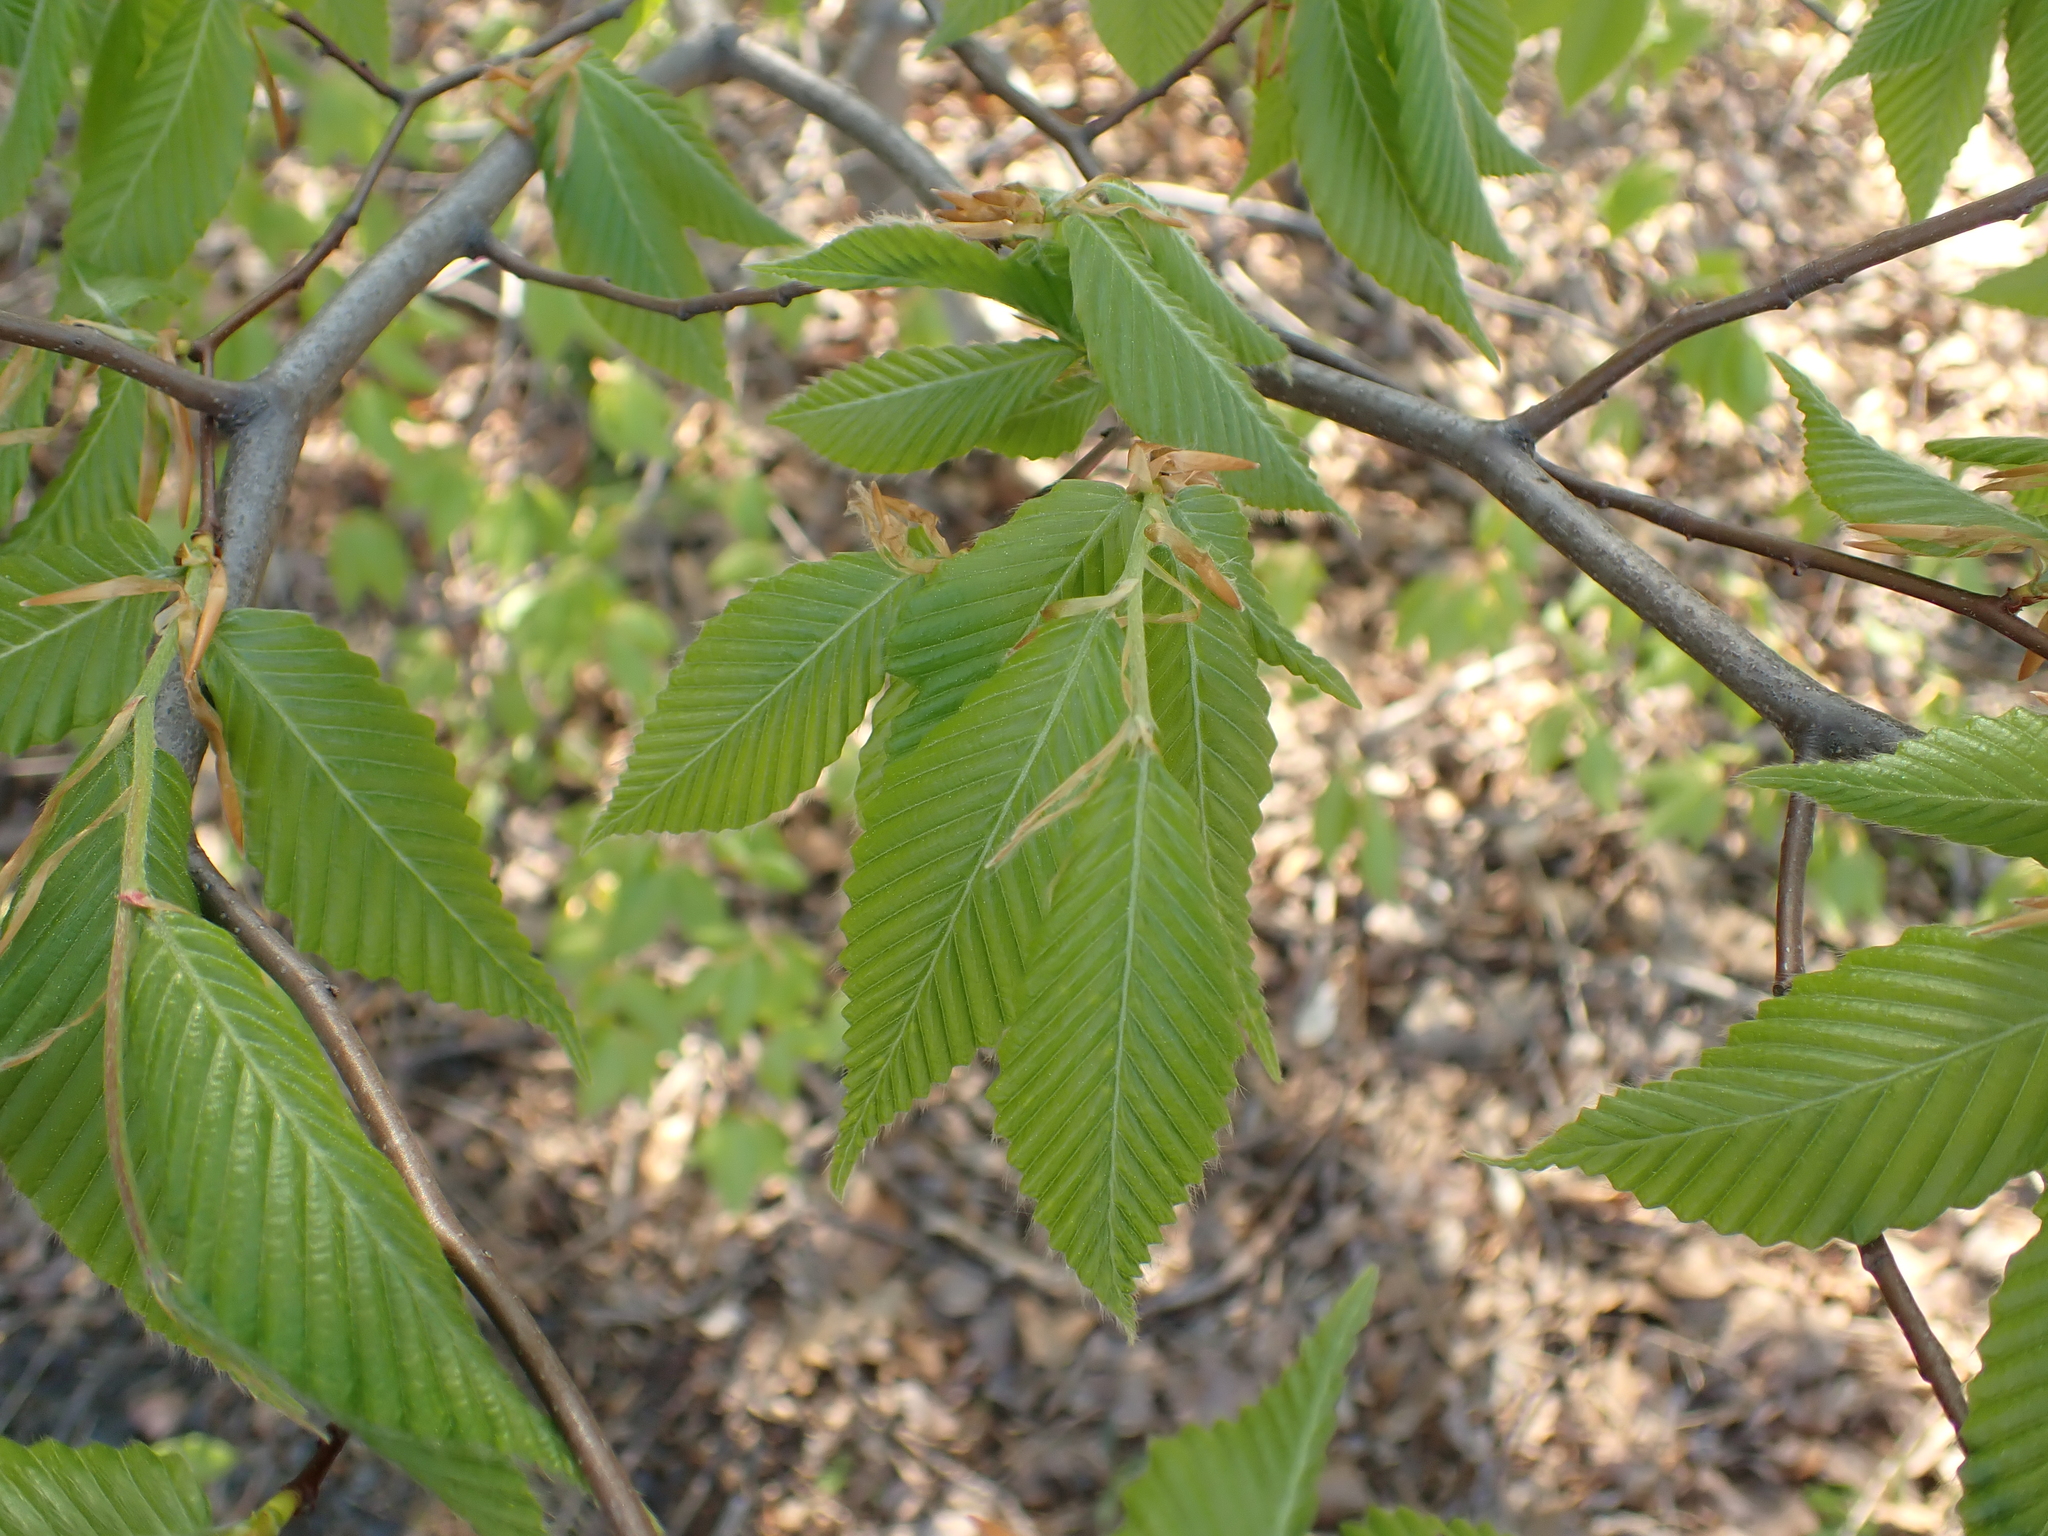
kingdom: Plantae
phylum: Tracheophyta
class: Magnoliopsida
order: Fagales
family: Fagaceae
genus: Fagus
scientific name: Fagus grandifolia
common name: American beech
